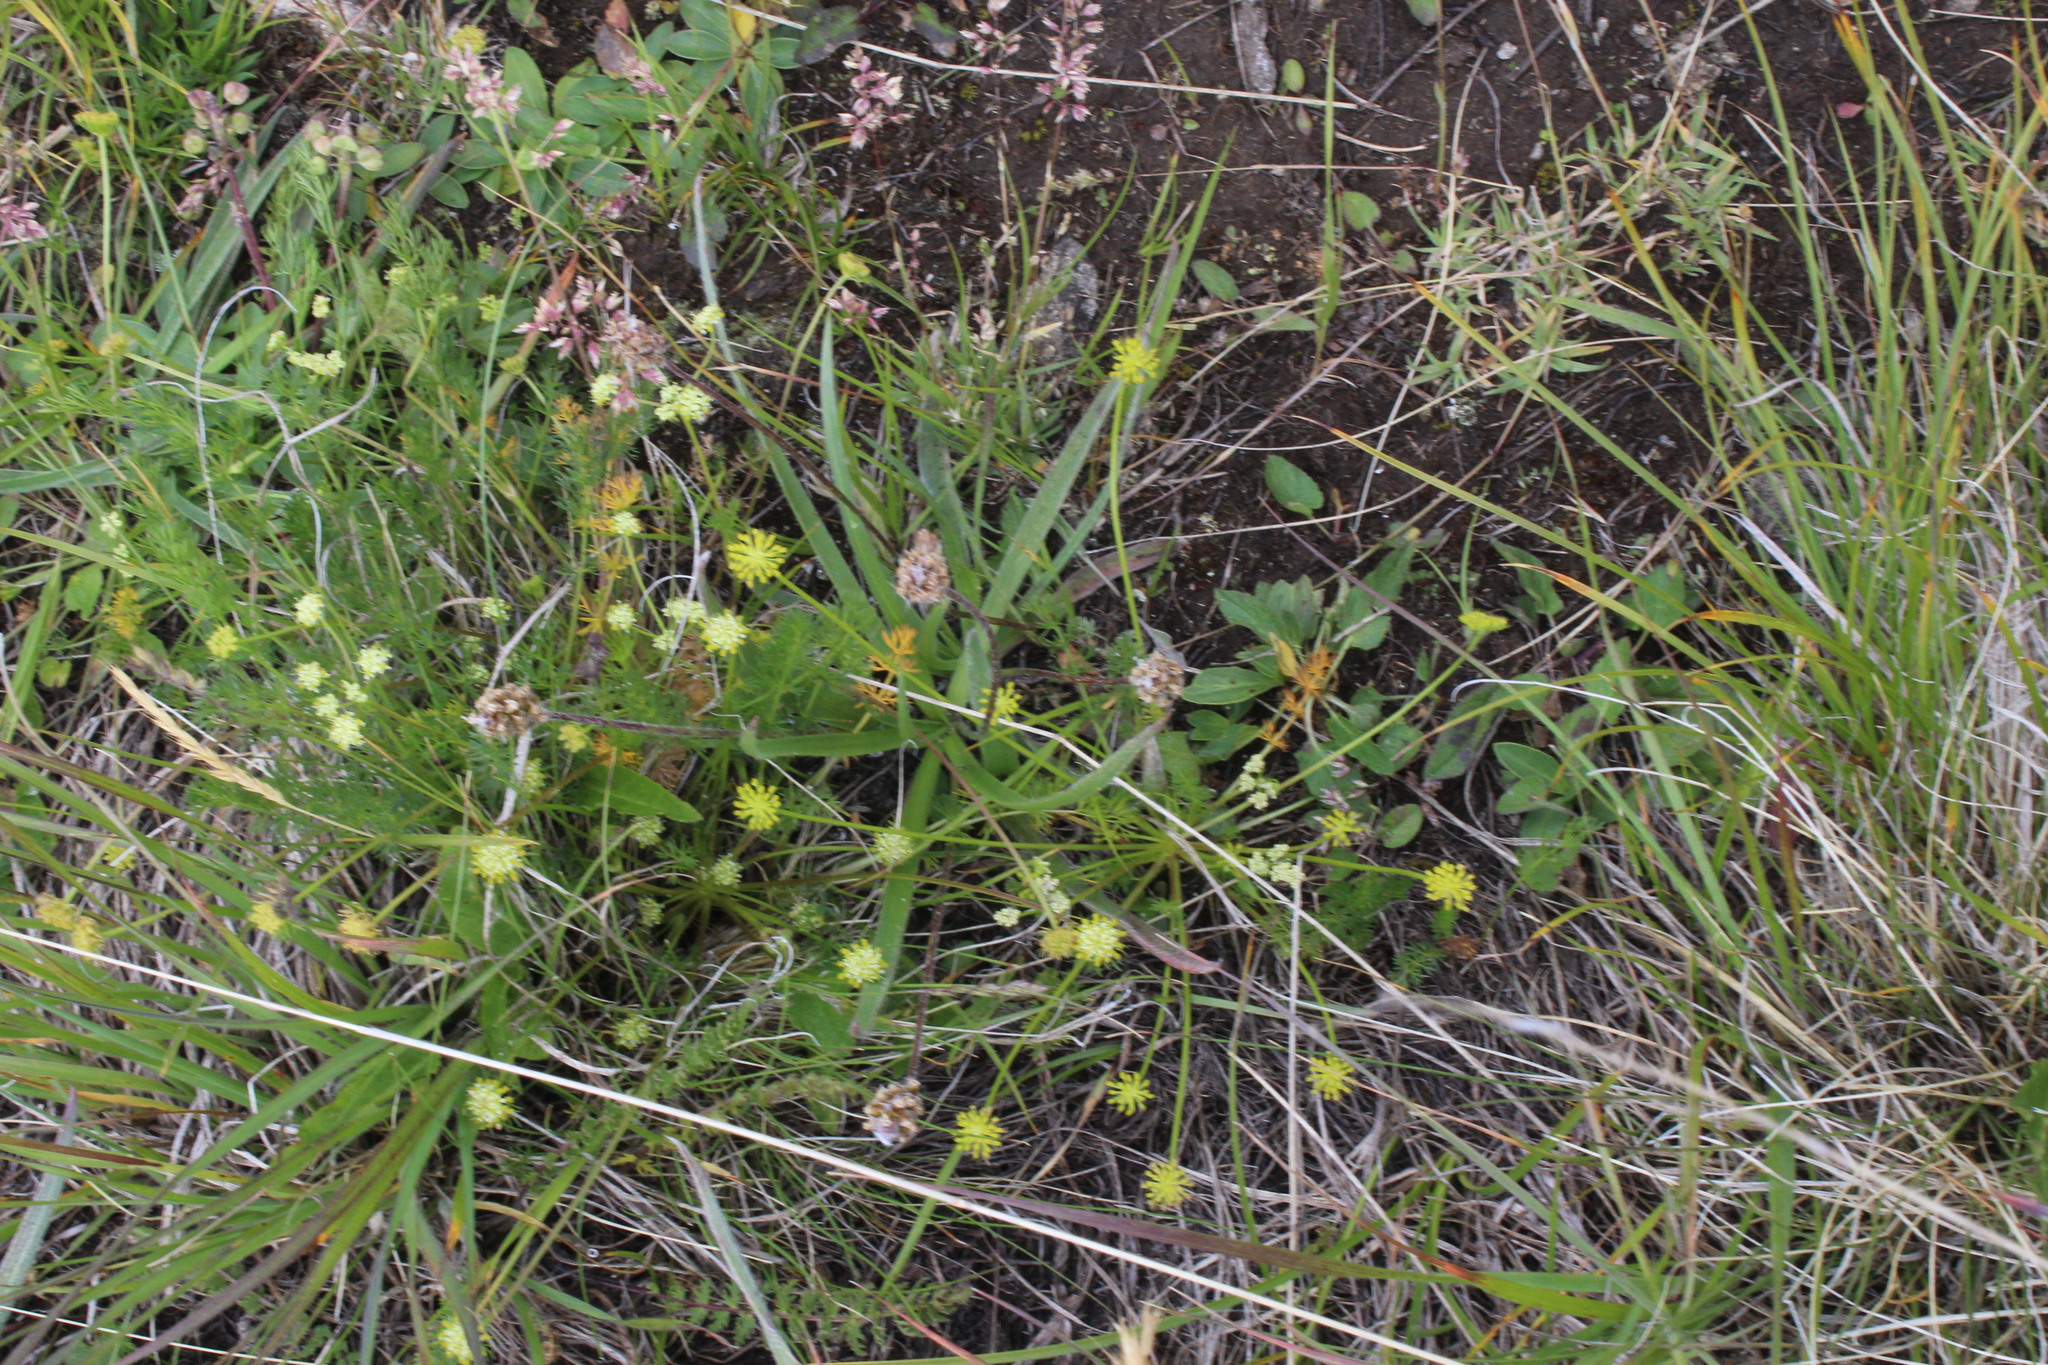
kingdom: Plantae
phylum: Tracheophyta
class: Magnoliopsida
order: Apiales
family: Apiaceae
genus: Chamaesciadium
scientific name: Chamaesciadium acaule
